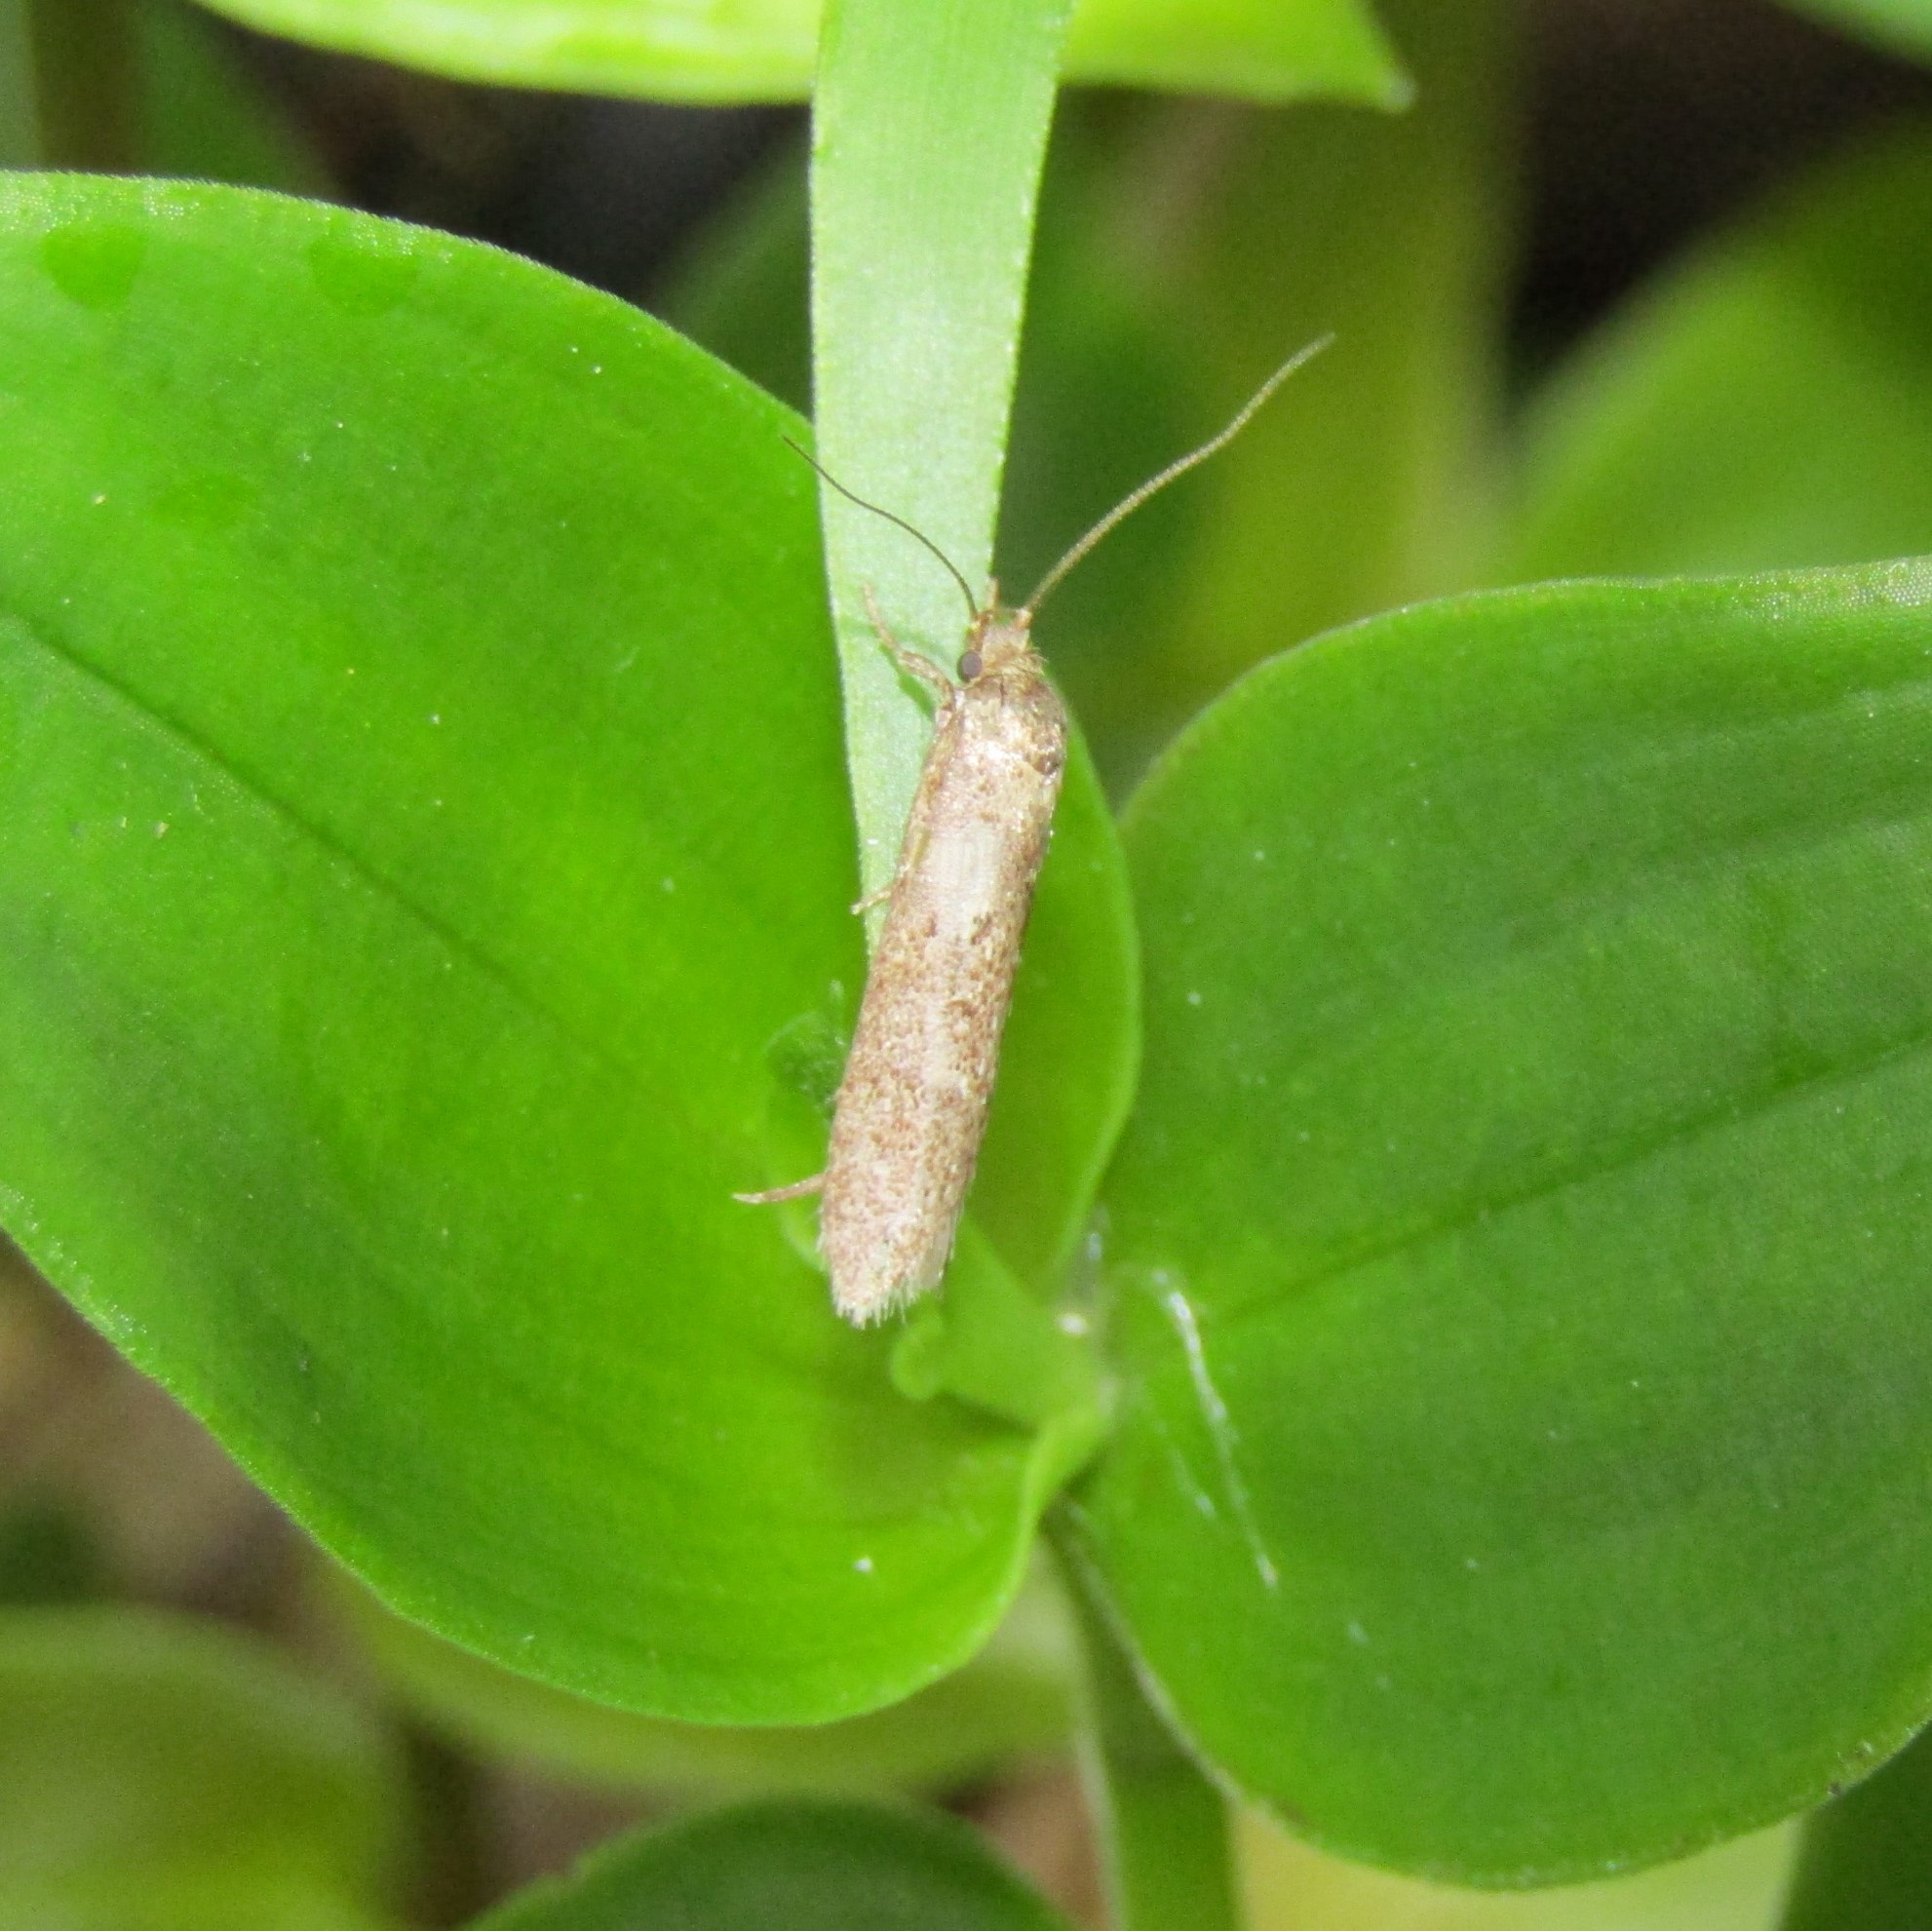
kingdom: Animalia
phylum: Arthropoda
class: Insecta
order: Lepidoptera
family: Oecophoridae
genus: Chersadaula
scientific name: Chersadaula ochrogastra
